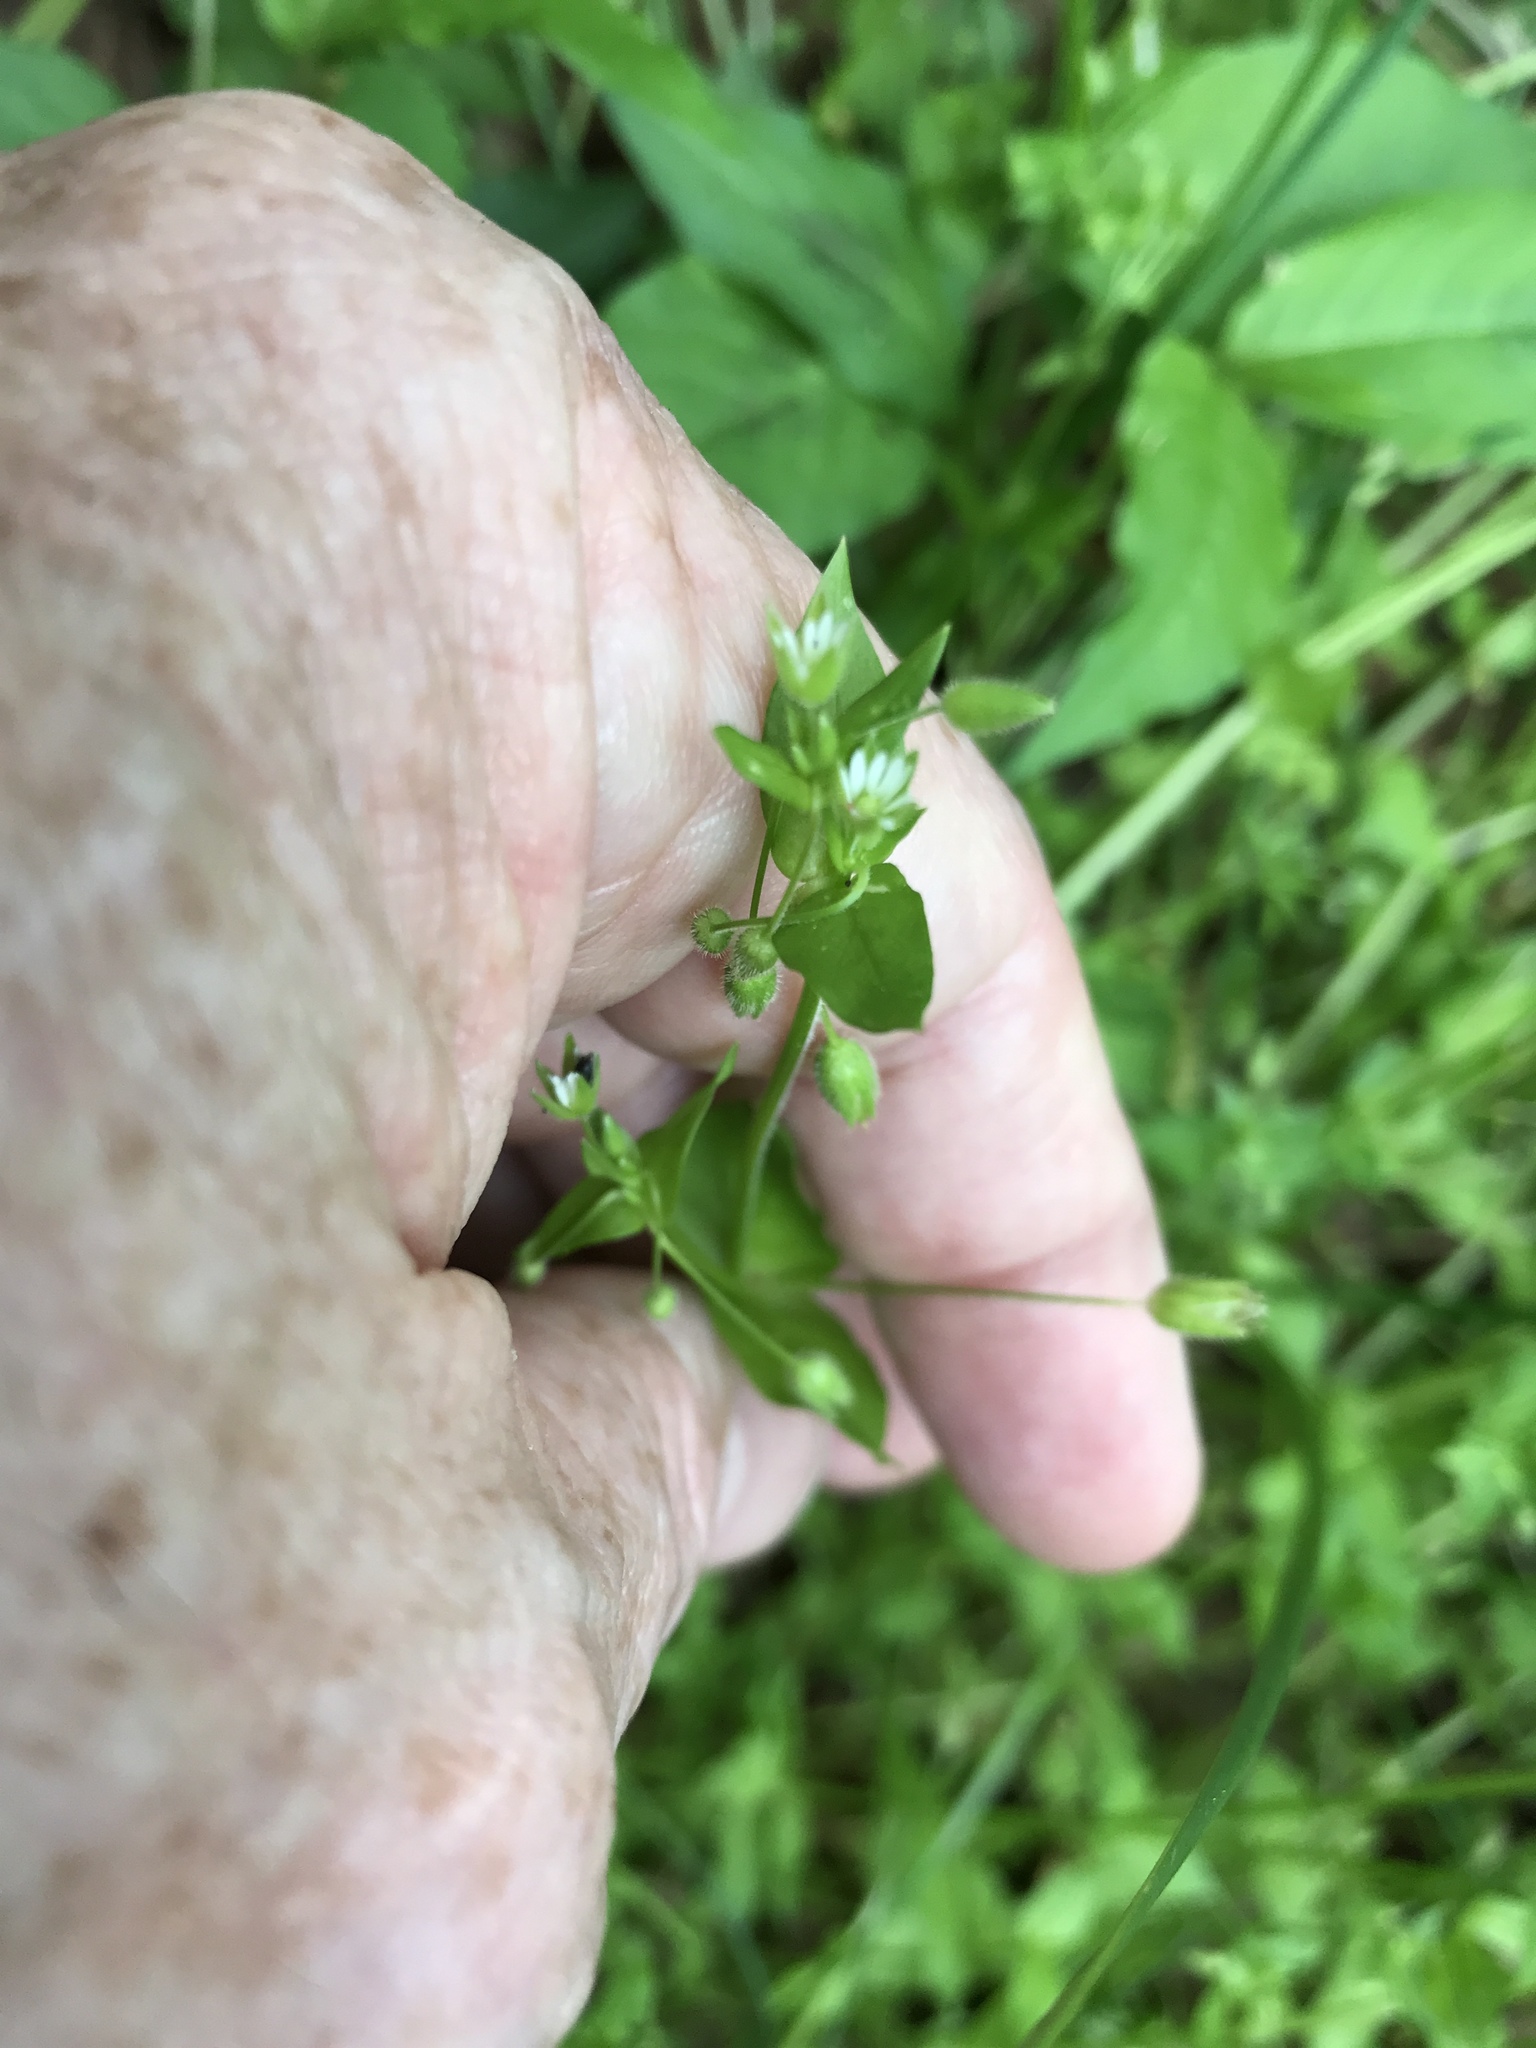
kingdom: Plantae
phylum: Tracheophyta
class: Magnoliopsida
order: Caryophyllales
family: Caryophyllaceae
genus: Stellaria
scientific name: Stellaria media
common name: Common chickweed
